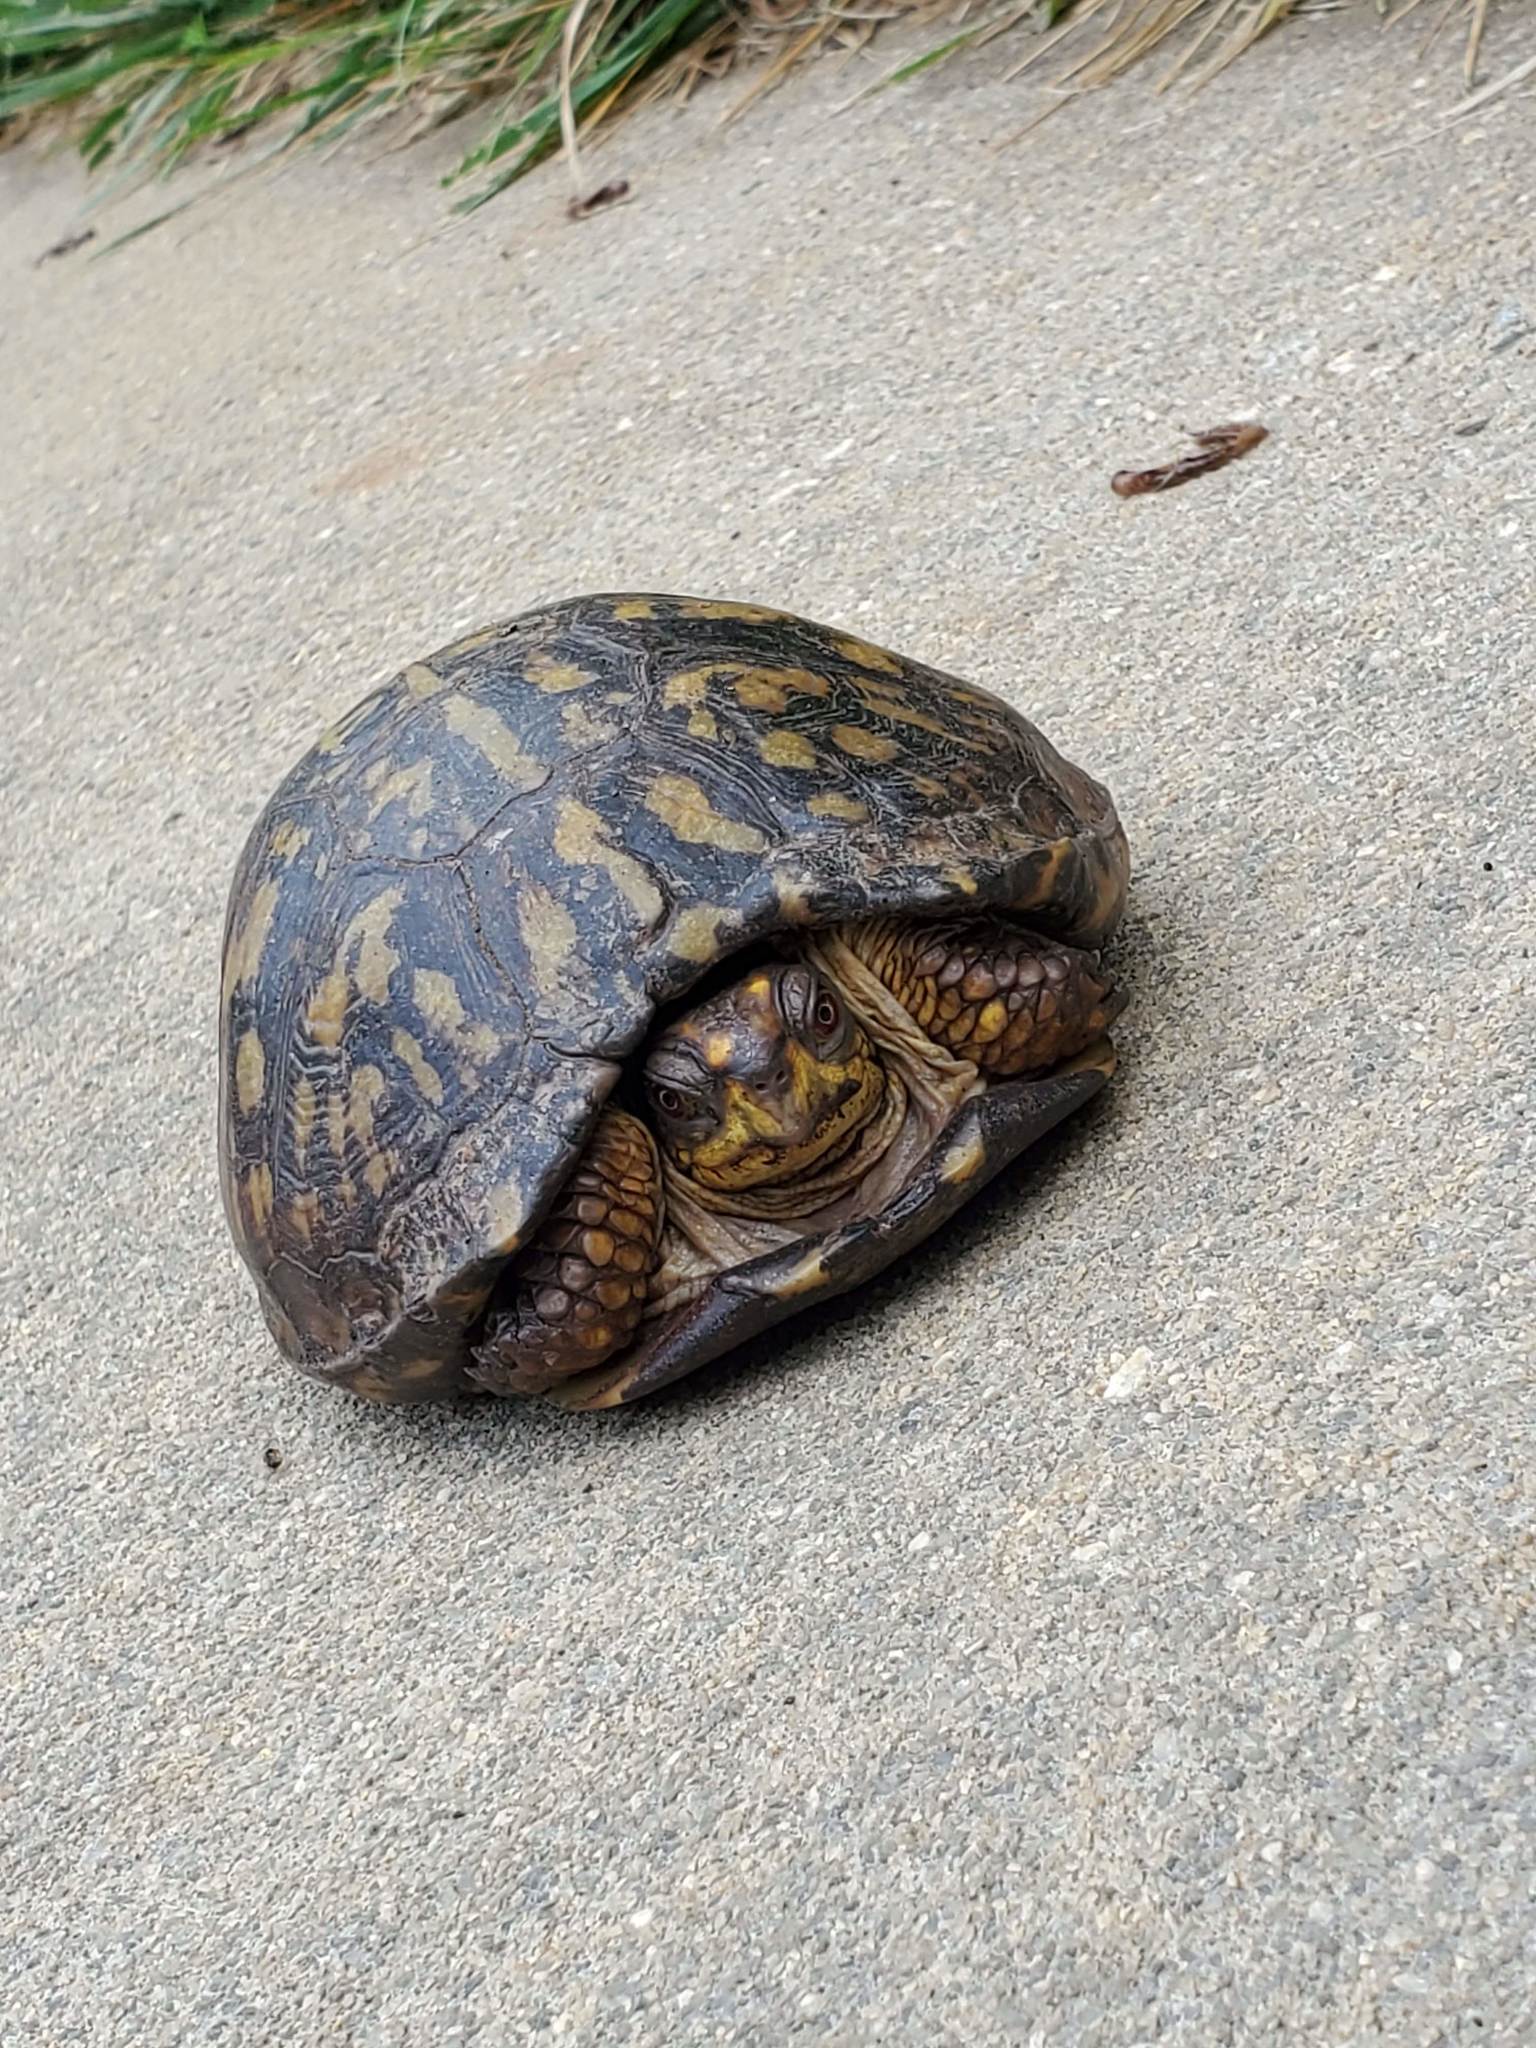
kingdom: Animalia
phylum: Chordata
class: Testudines
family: Emydidae
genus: Terrapene
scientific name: Terrapene carolina
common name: Common box turtle
